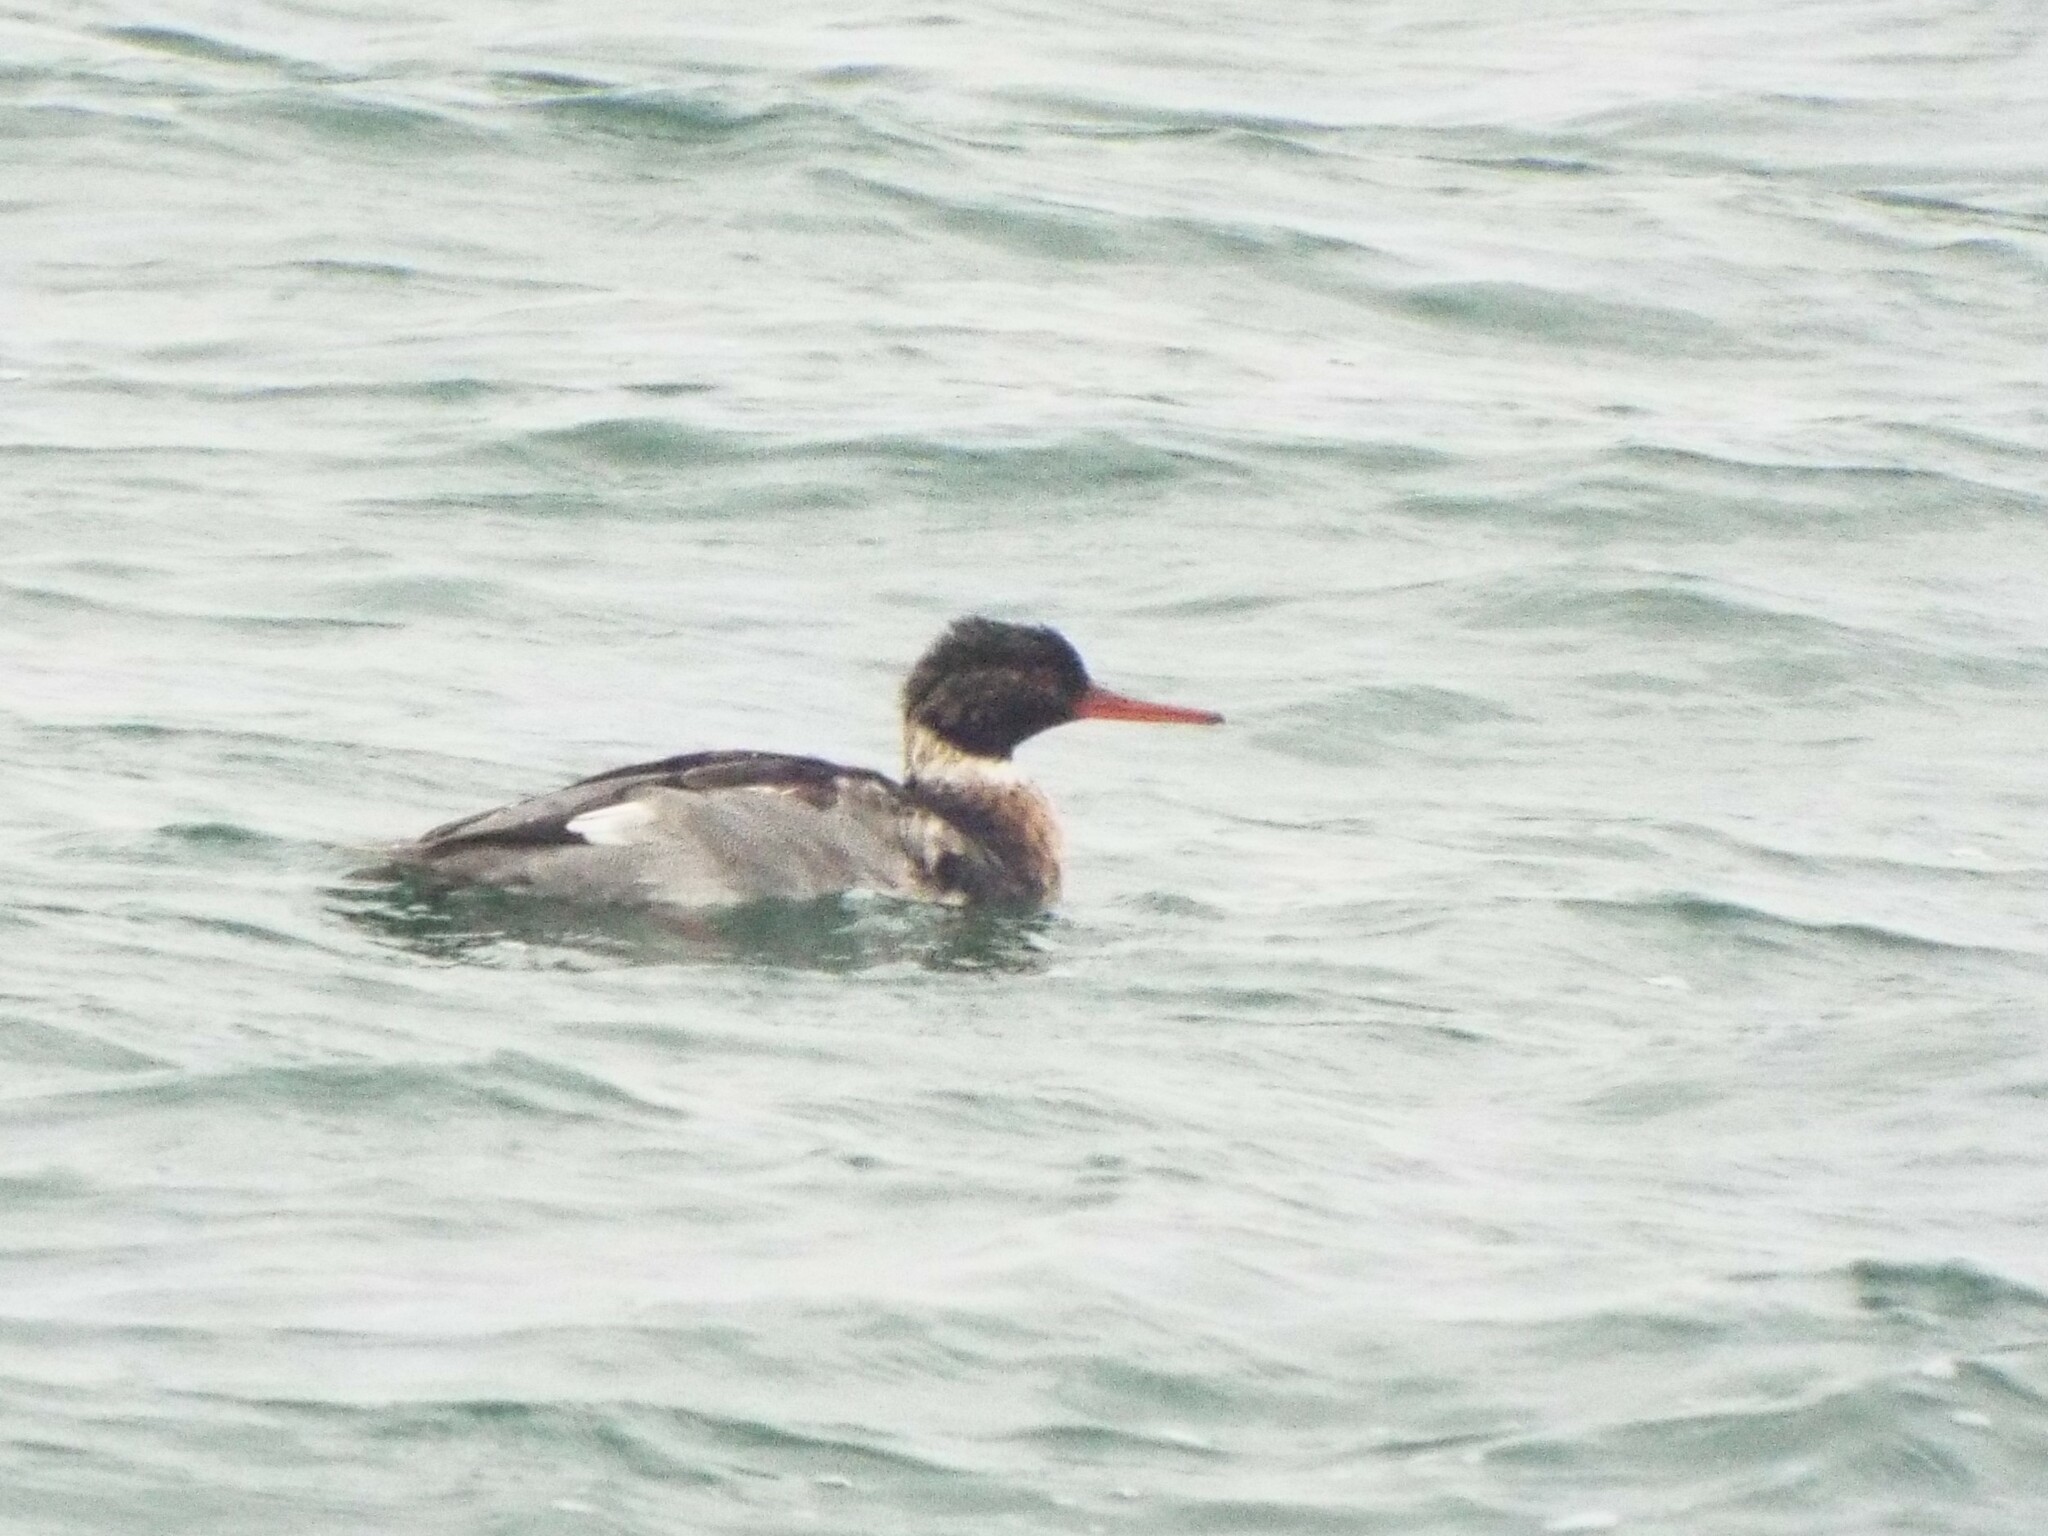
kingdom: Animalia
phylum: Chordata
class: Aves
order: Anseriformes
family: Anatidae
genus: Mergus
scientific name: Mergus serrator
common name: Red-breasted merganser
